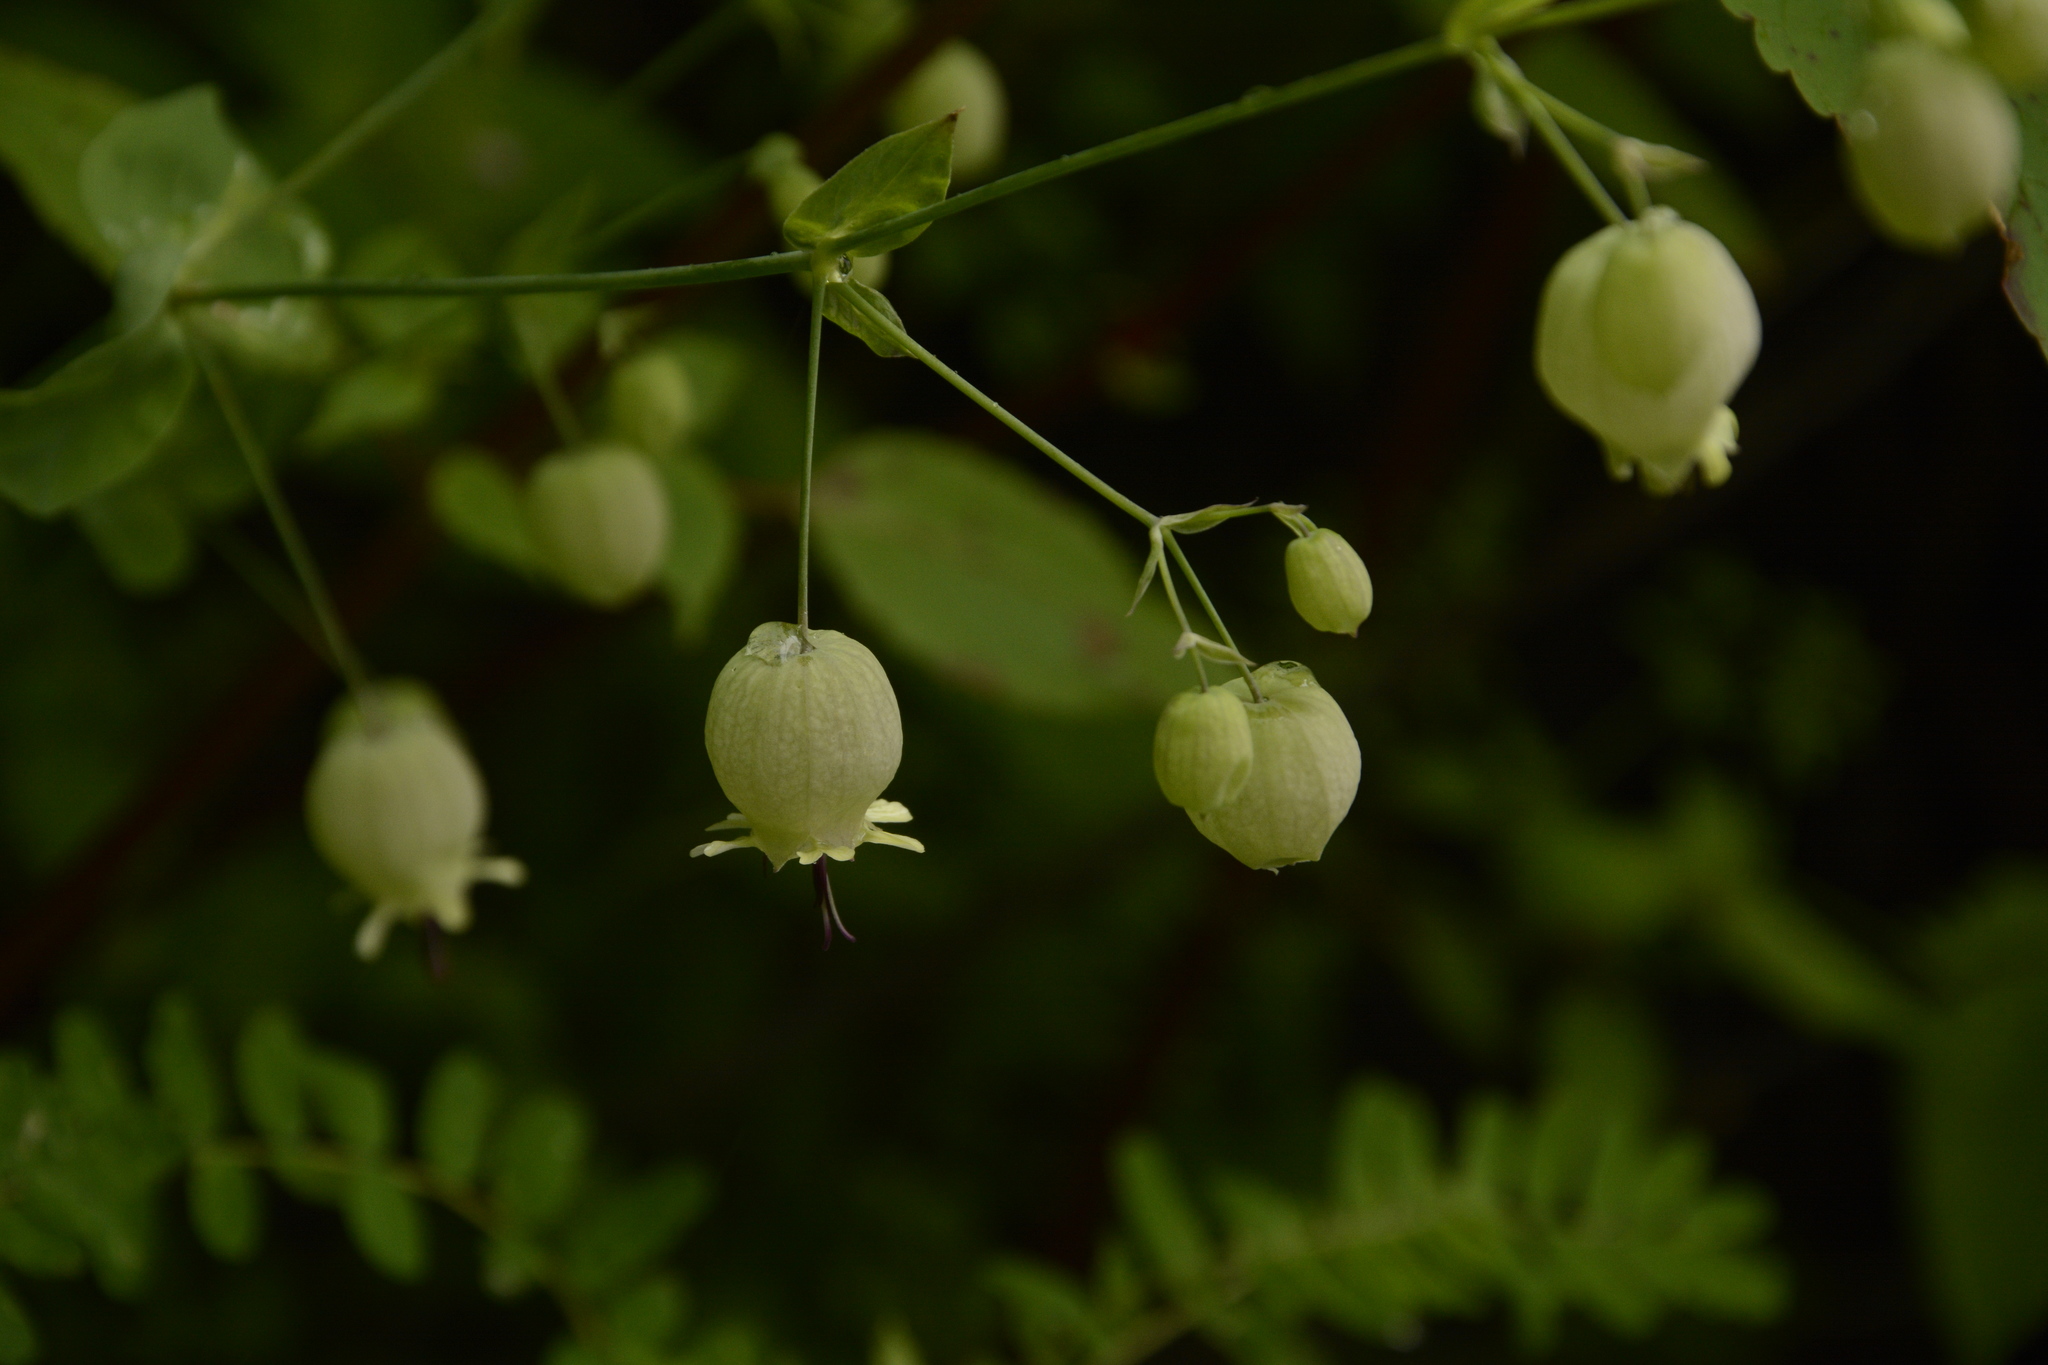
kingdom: Plantae
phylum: Tracheophyta
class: Magnoliopsida
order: Caryophyllales
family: Caryophyllaceae
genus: Silene
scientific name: Silene vulgaris
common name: Bladder campion
